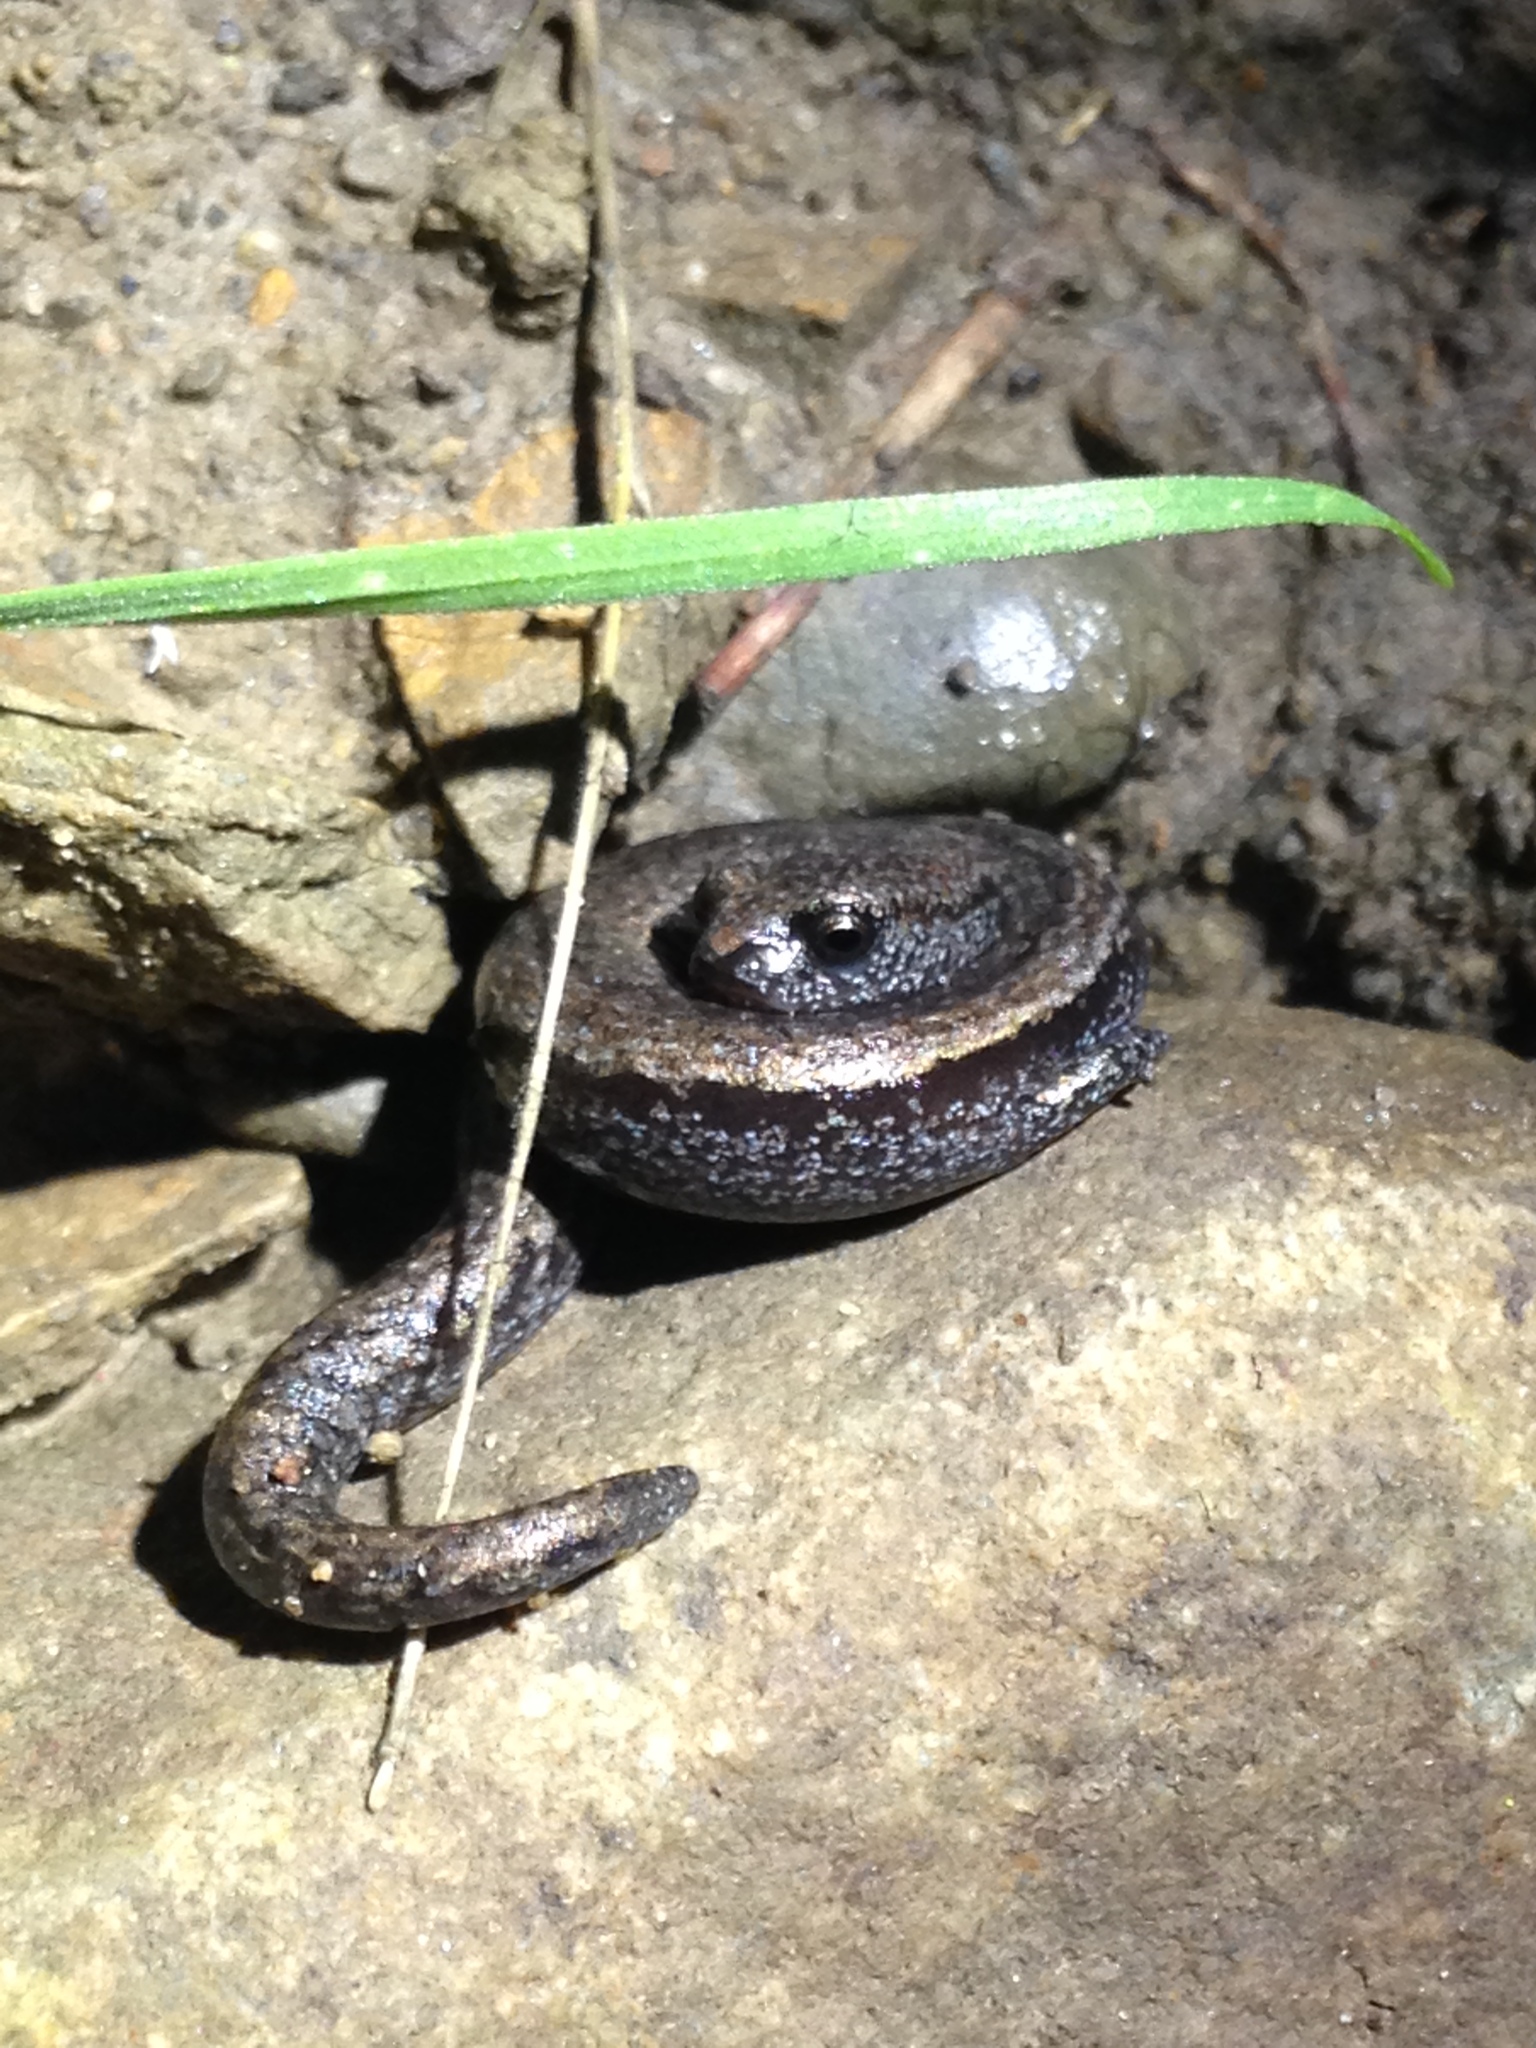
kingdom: Animalia
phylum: Chordata
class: Amphibia
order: Caudata
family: Plethodontidae
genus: Batrachoseps
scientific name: Batrachoseps nigriventris
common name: Black-bellied slender salamander
